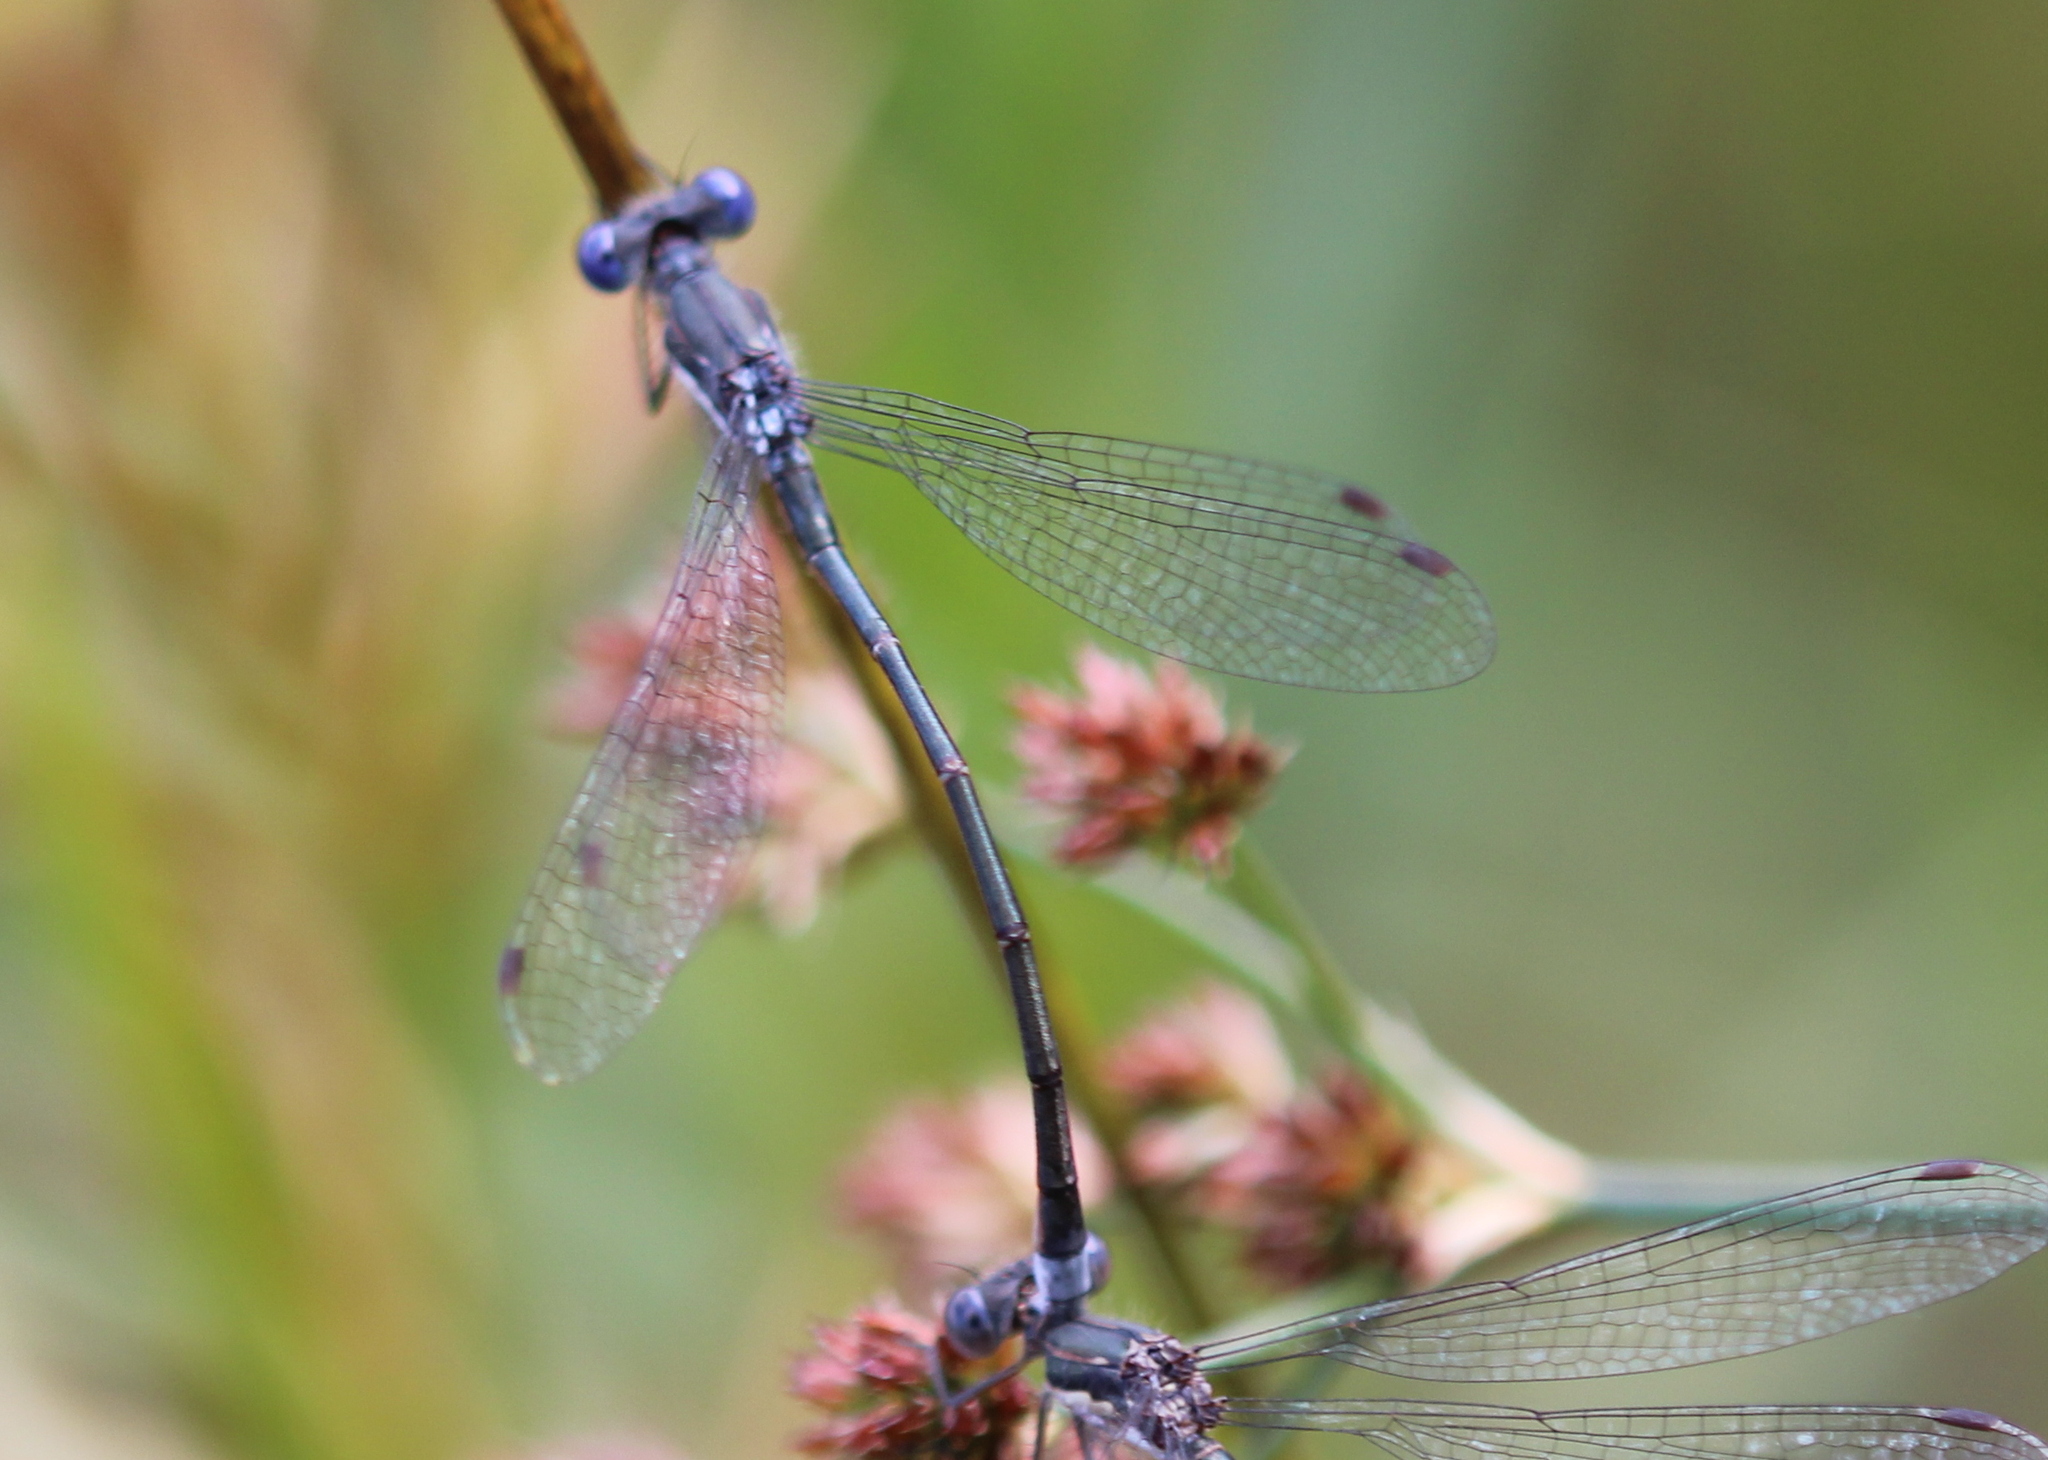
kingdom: Animalia
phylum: Arthropoda
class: Insecta
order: Odonata
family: Lestidae
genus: Lestes
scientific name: Lestes congener
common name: Spotted spreadwing
